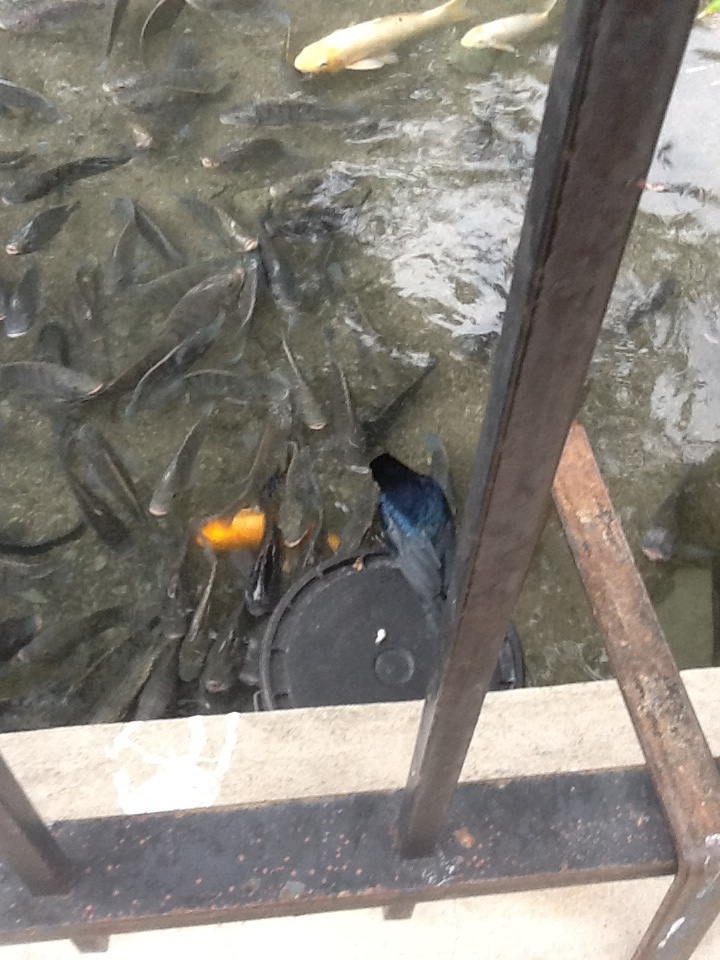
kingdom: Animalia
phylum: Chordata
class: Aves
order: Passeriformes
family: Icteridae
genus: Quiscalus
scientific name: Quiscalus mexicanus
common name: Great-tailed grackle
